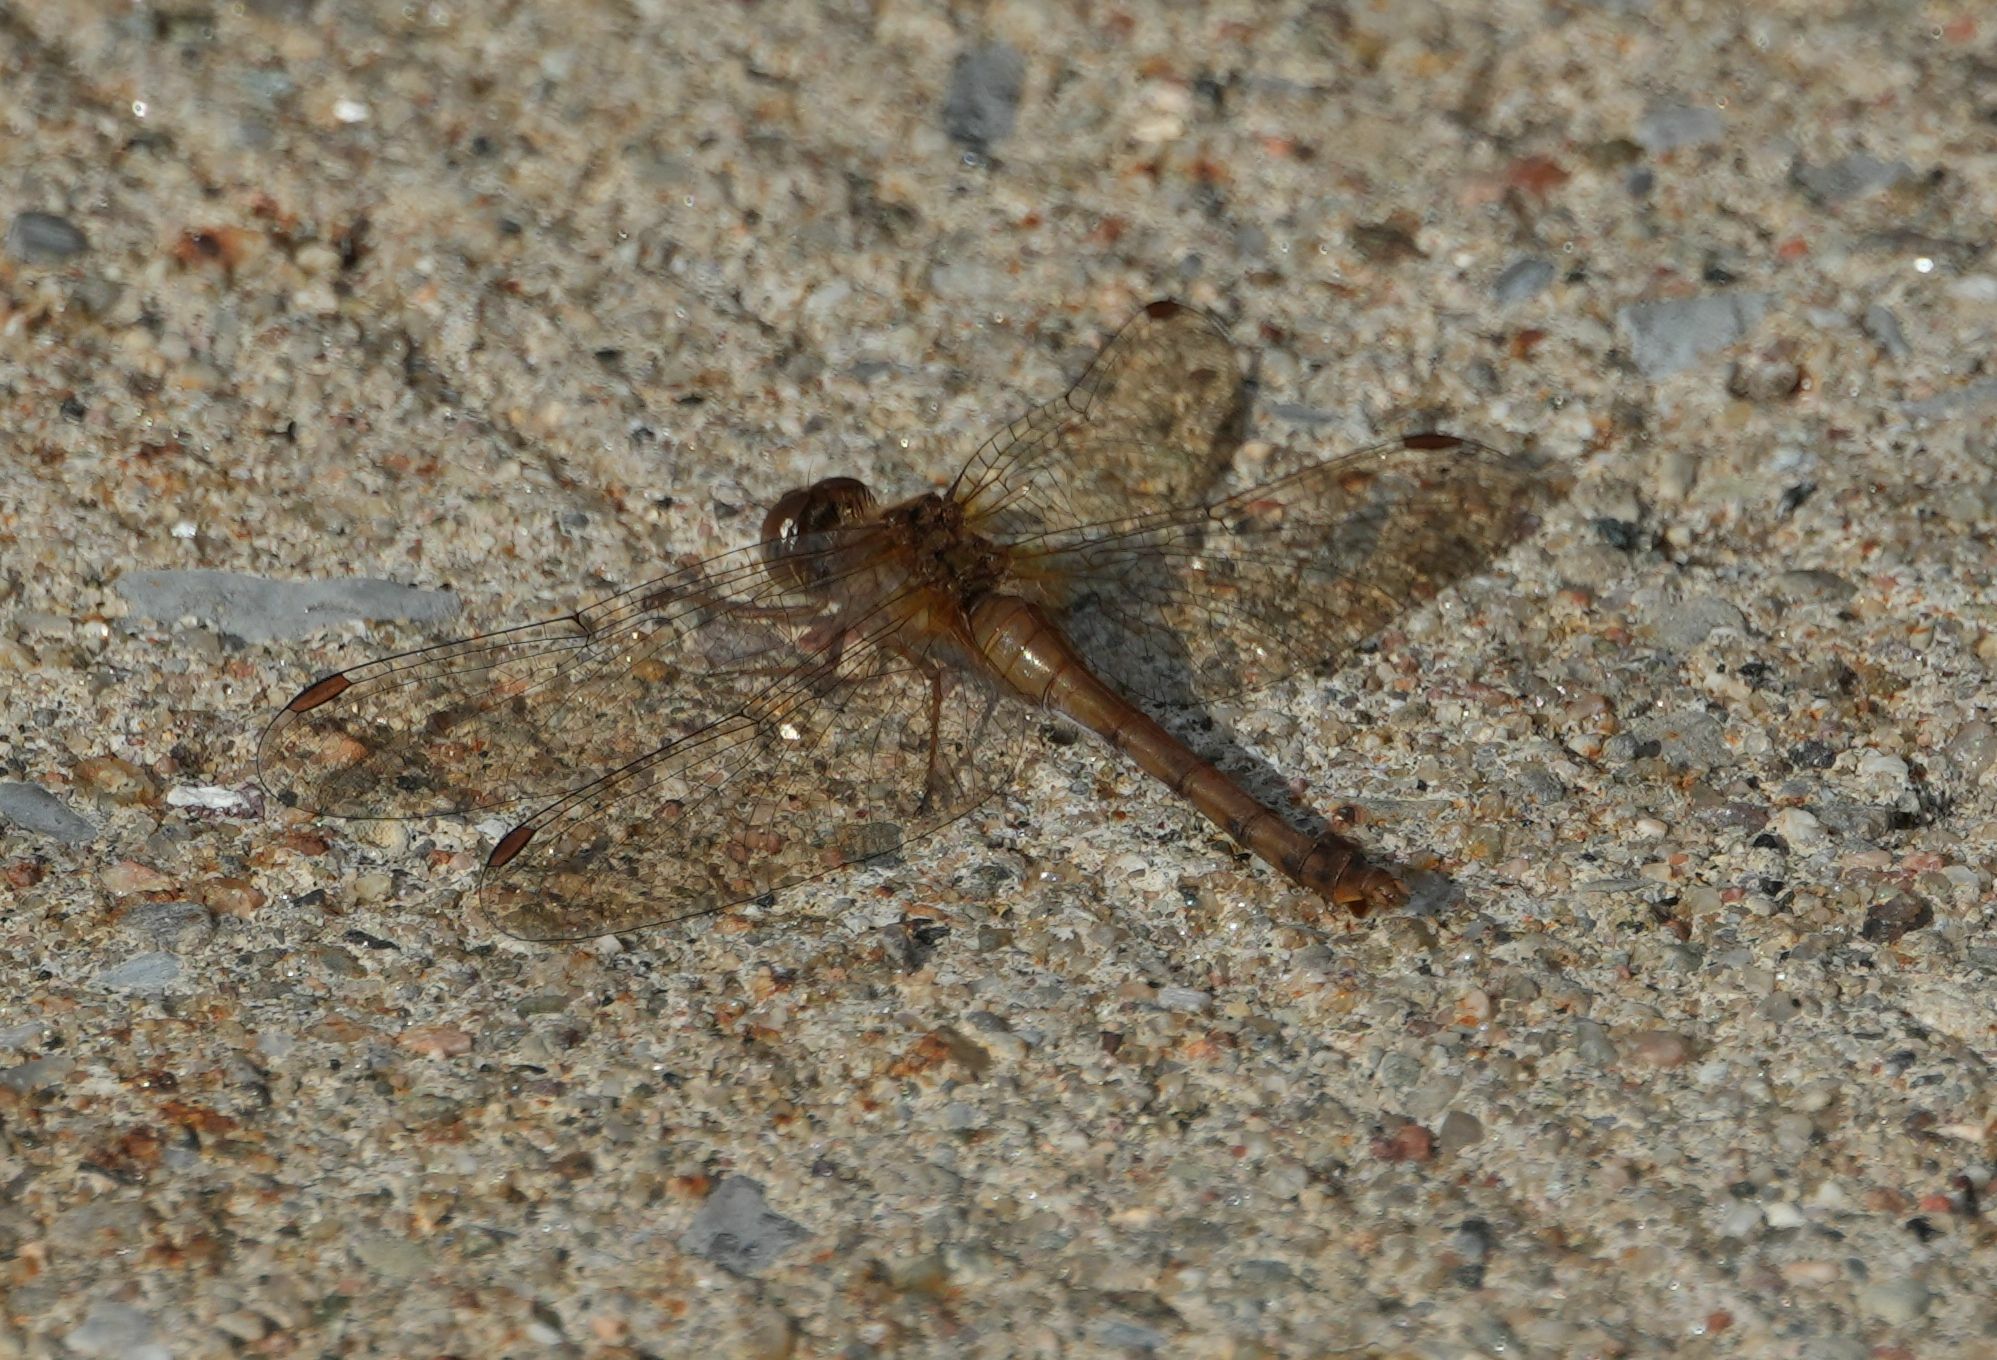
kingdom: Animalia
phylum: Arthropoda
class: Insecta
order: Odonata
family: Libellulidae
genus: Sympetrum
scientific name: Sympetrum vicinum
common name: Autumn meadowhawk
